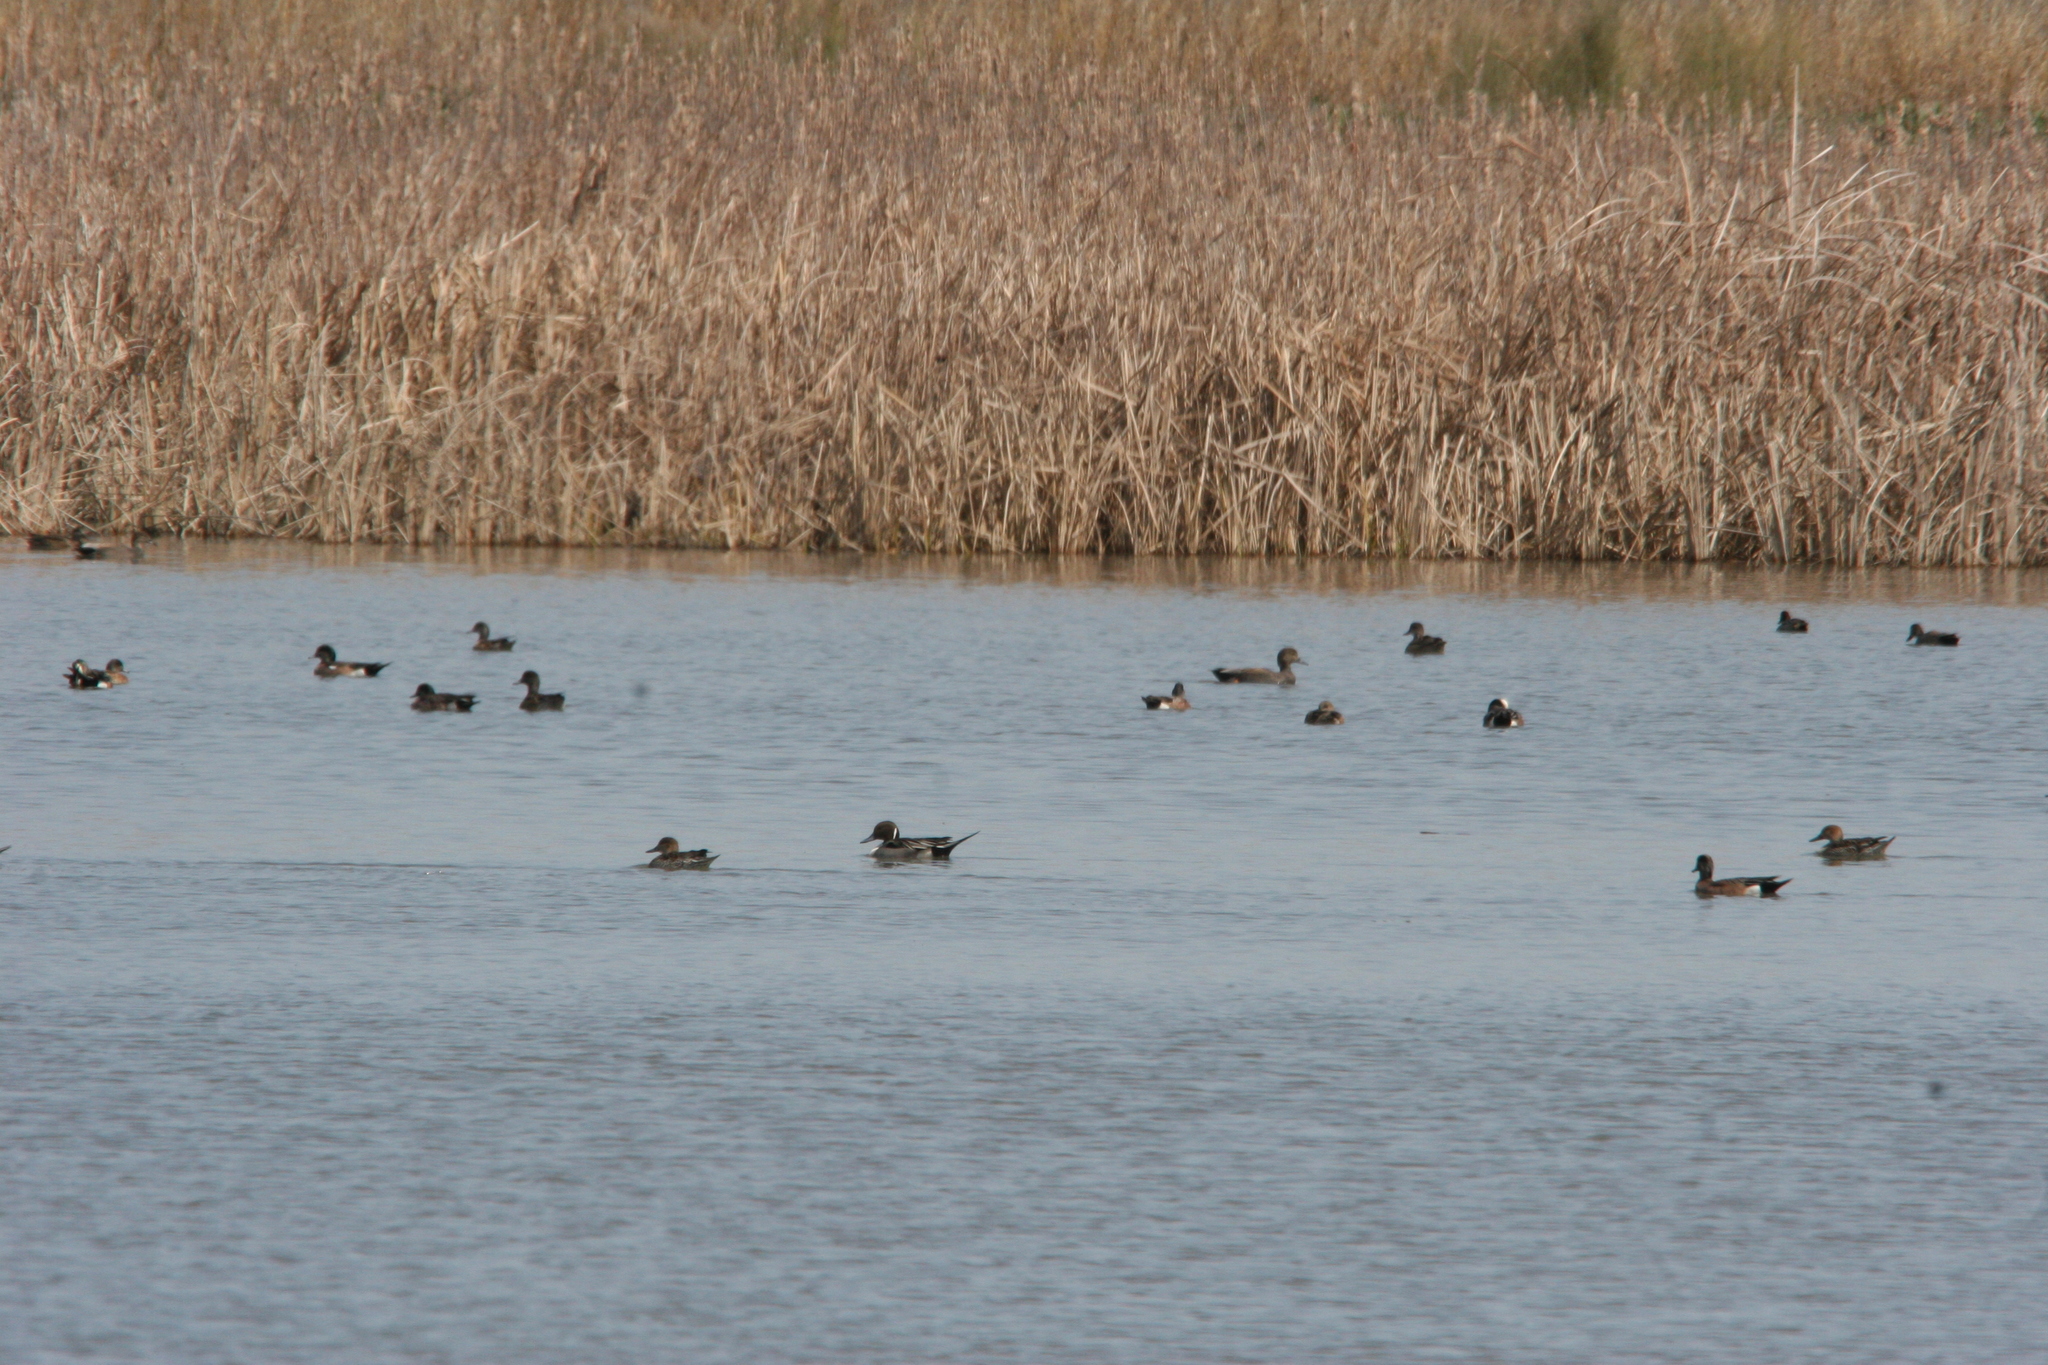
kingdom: Animalia
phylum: Chordata
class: Aves
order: Anseriformes
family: Anatidae
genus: Anas
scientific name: Anas acuta
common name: Northern pintail
